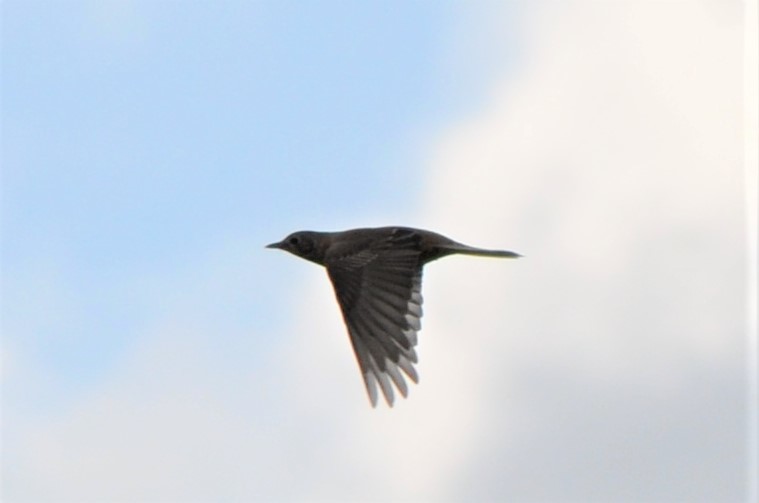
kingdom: Animalia
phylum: Chordata
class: Aves
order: Passeriformes
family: Turdidae
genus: Turdus
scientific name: Turdus pilaris
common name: Fieldfare
